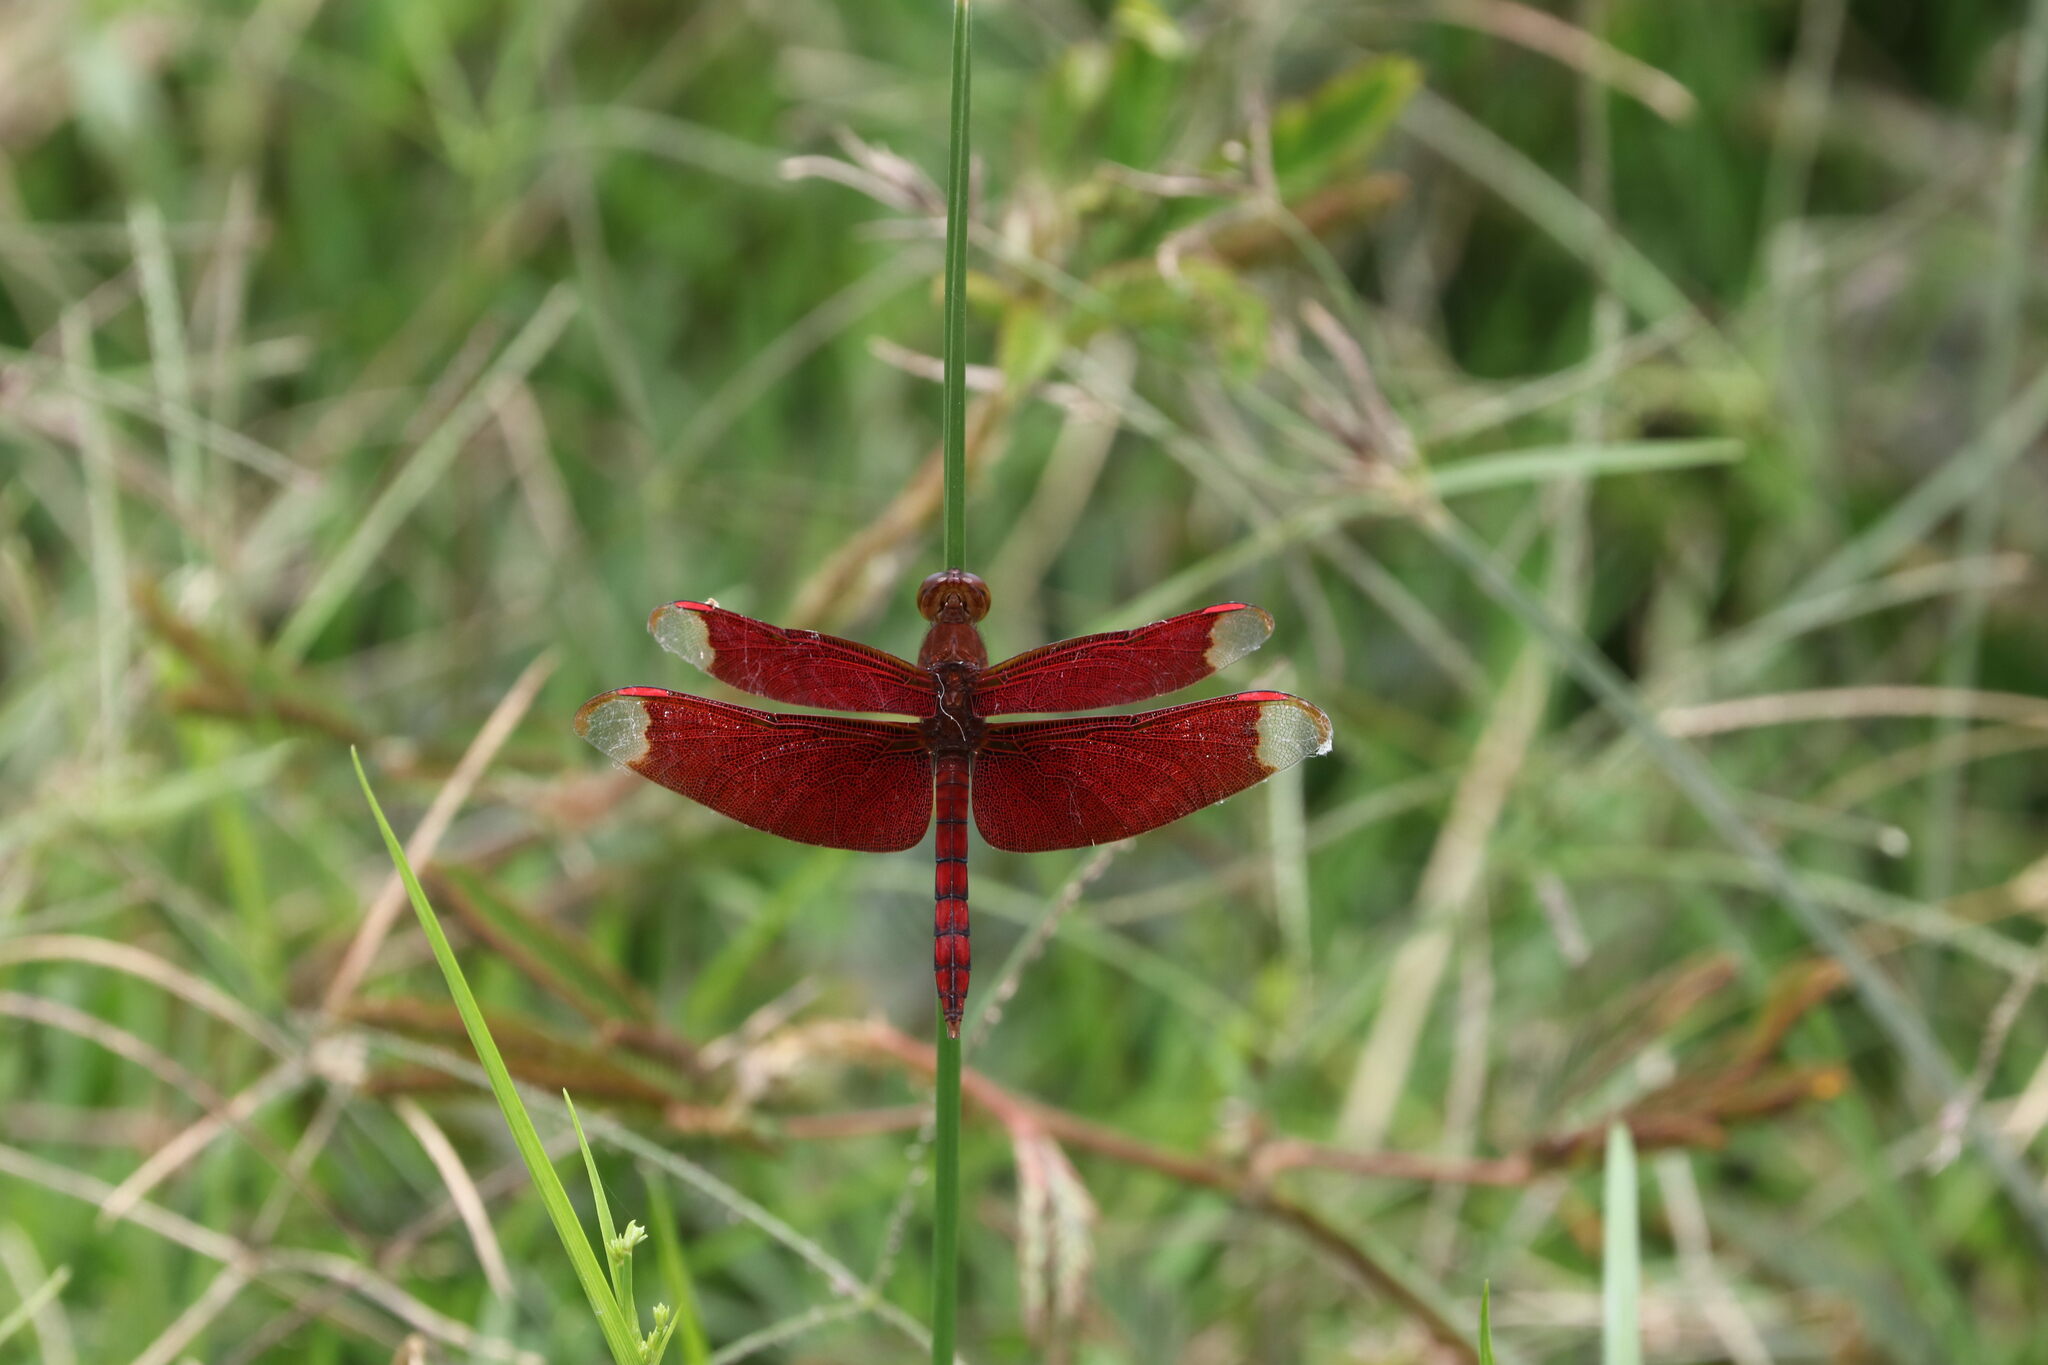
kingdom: Animalia
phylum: Arthropoda
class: Insecta
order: Odonata
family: Libellulidae
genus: Neurothemis
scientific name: Neurothemis fulvia
